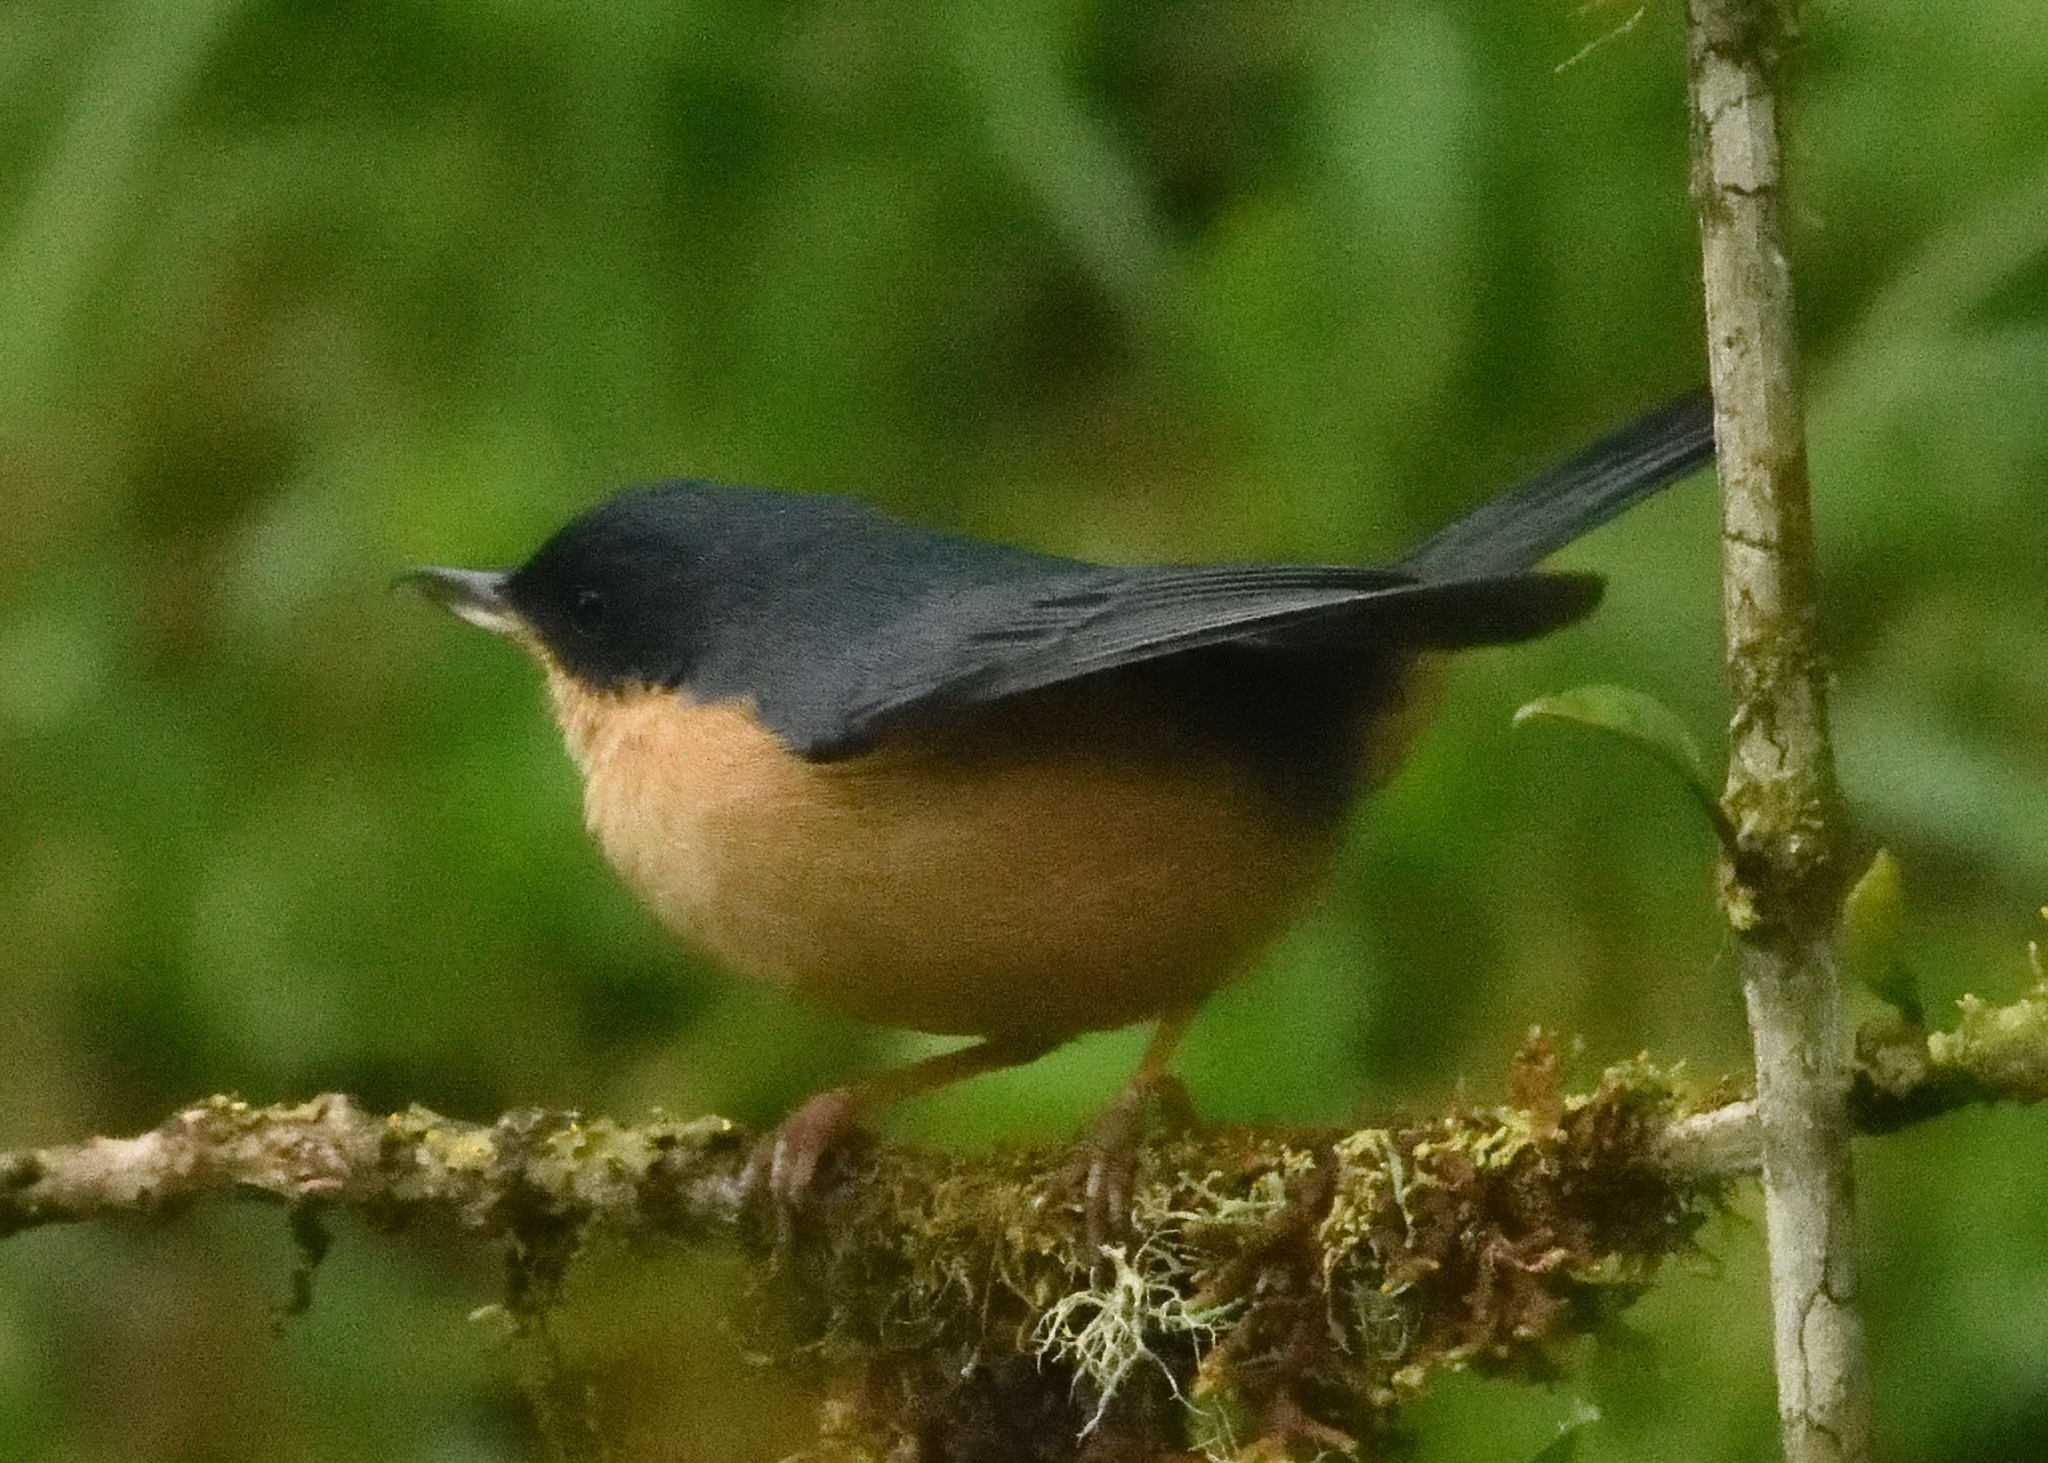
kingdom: Animalia
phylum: Chordata
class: Aves
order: Passeriformes
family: Thraupidae
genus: Diglossa
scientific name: Diglossa sittoides
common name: Rusty flowerpiercer
